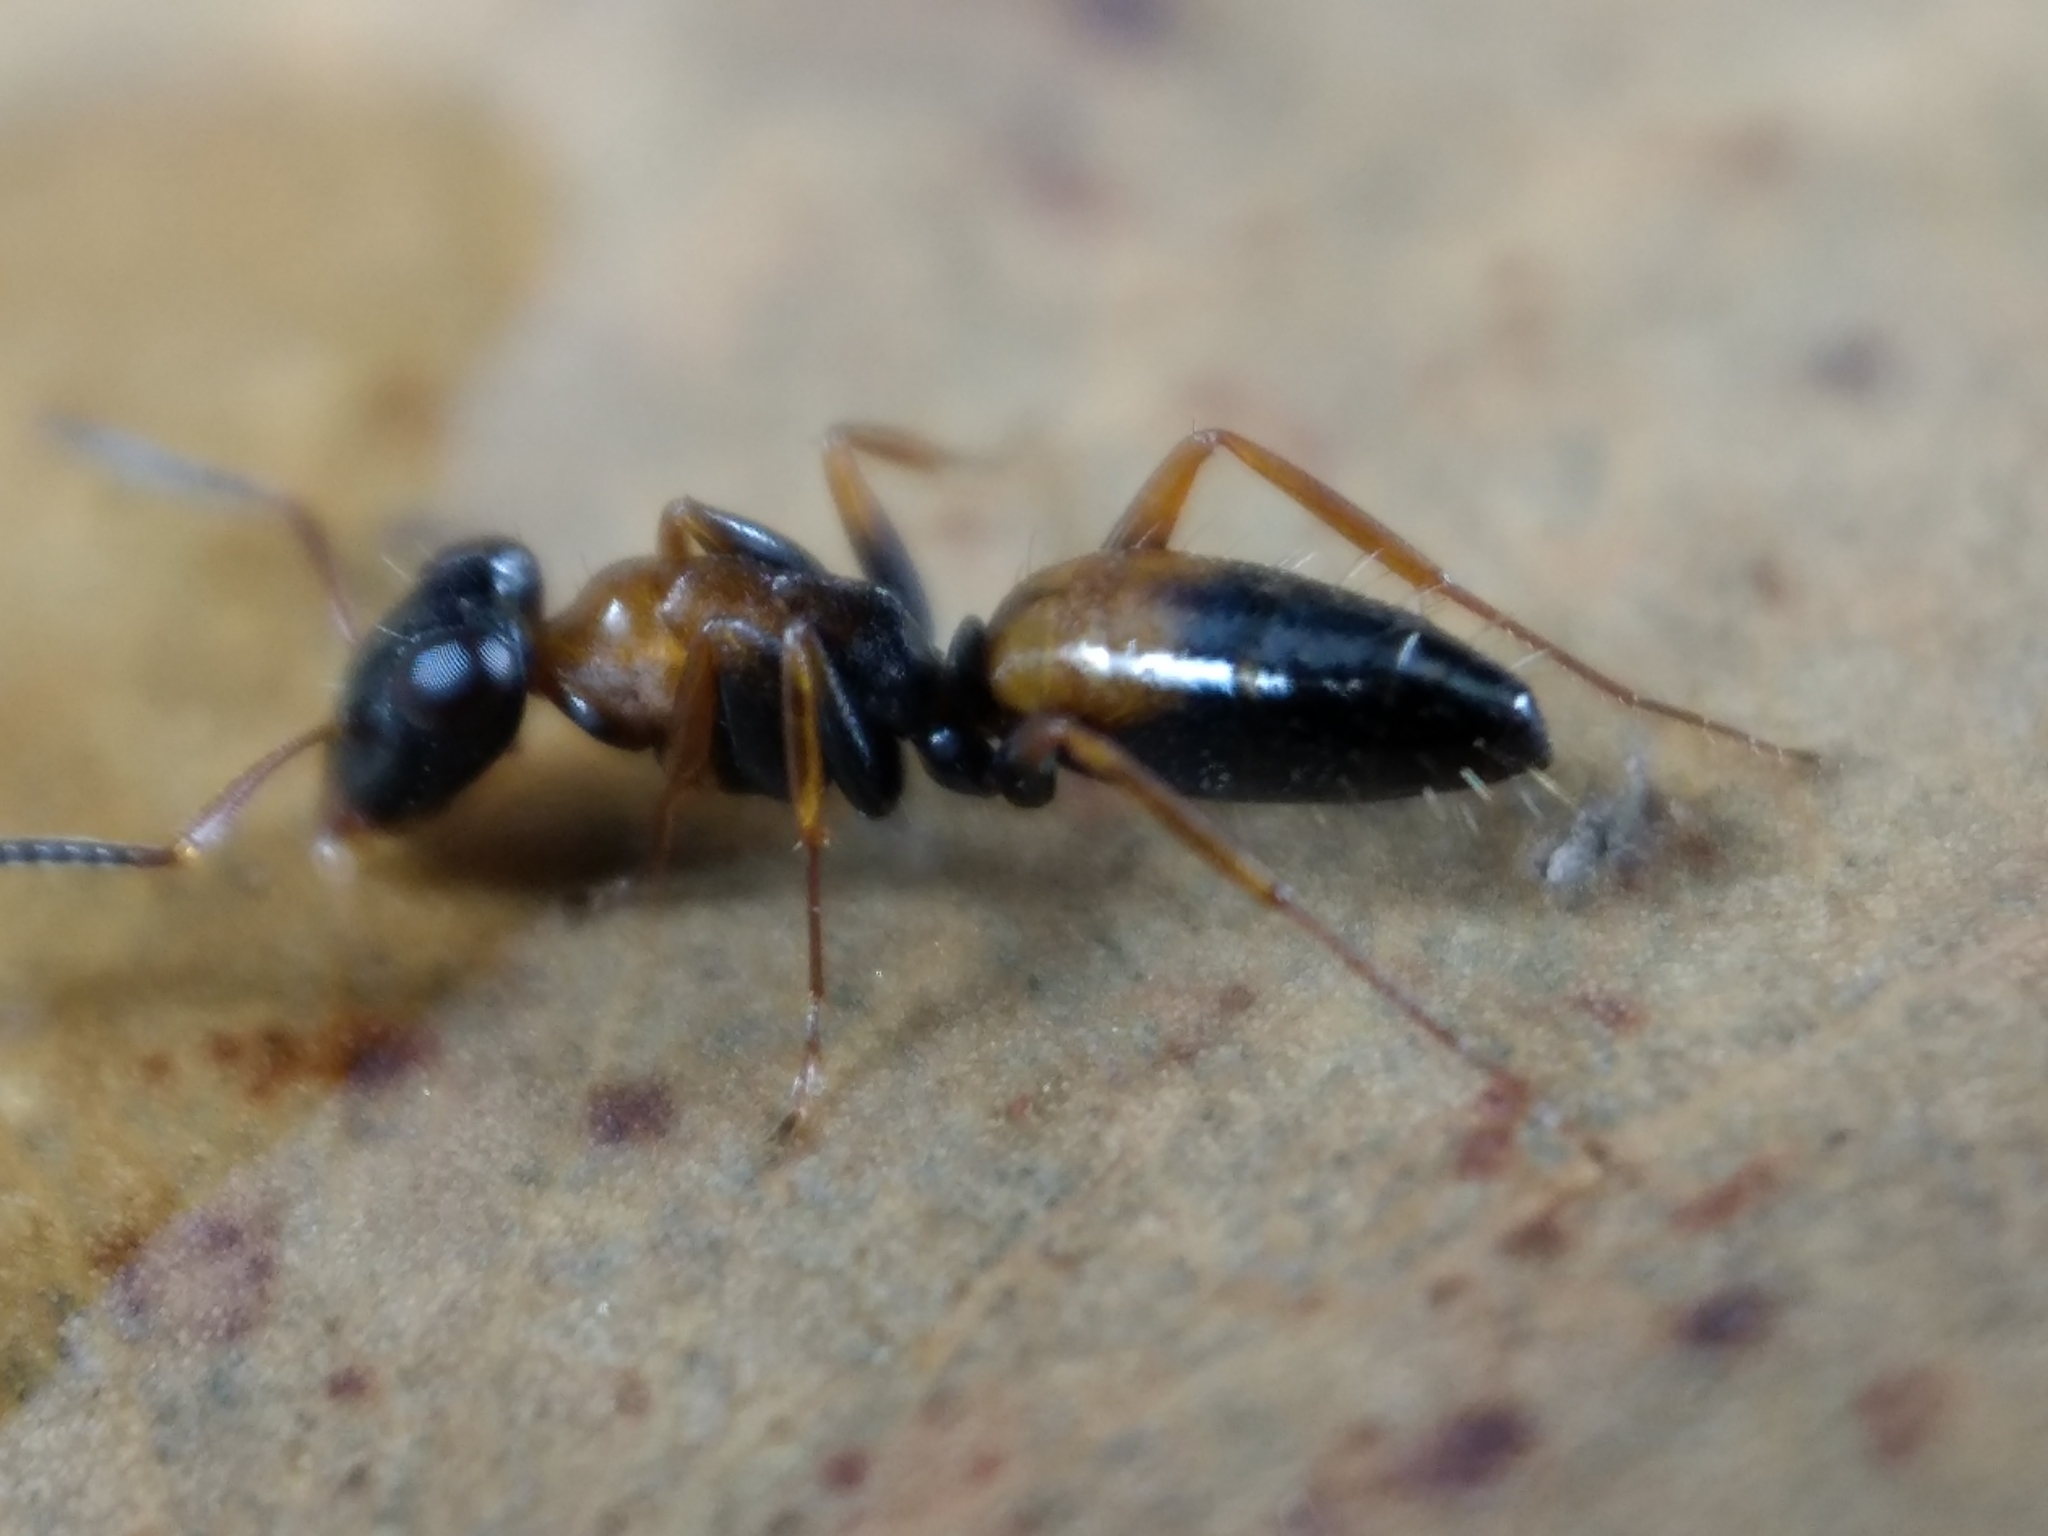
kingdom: Animalia
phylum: Arthropoda
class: Insecta
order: Hymenoptera
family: Formicidae
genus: Opisthopsis
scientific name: Opisthopsis pictus
